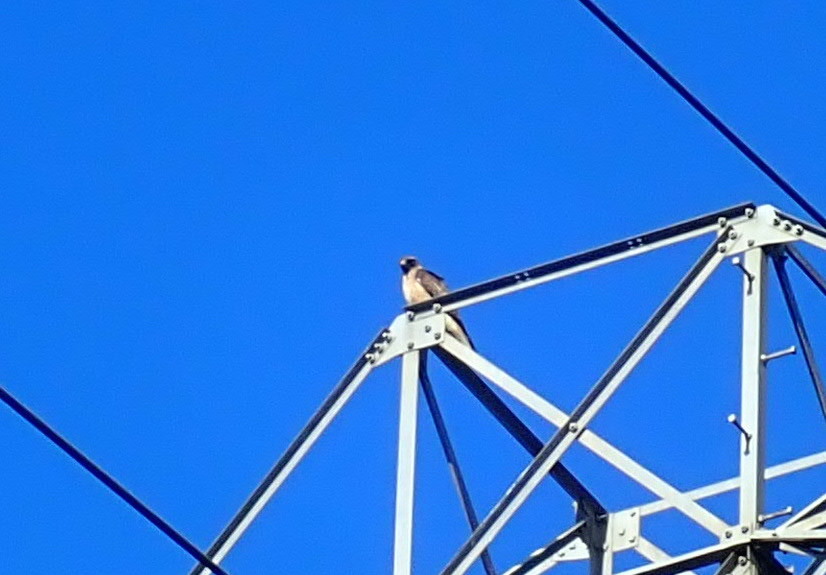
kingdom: Animalia
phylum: Chordata
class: Aves
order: Accipitriformes
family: Accipitridae
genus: Buteo
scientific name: Buteo jamaicensis
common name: Red-tailed hawk
